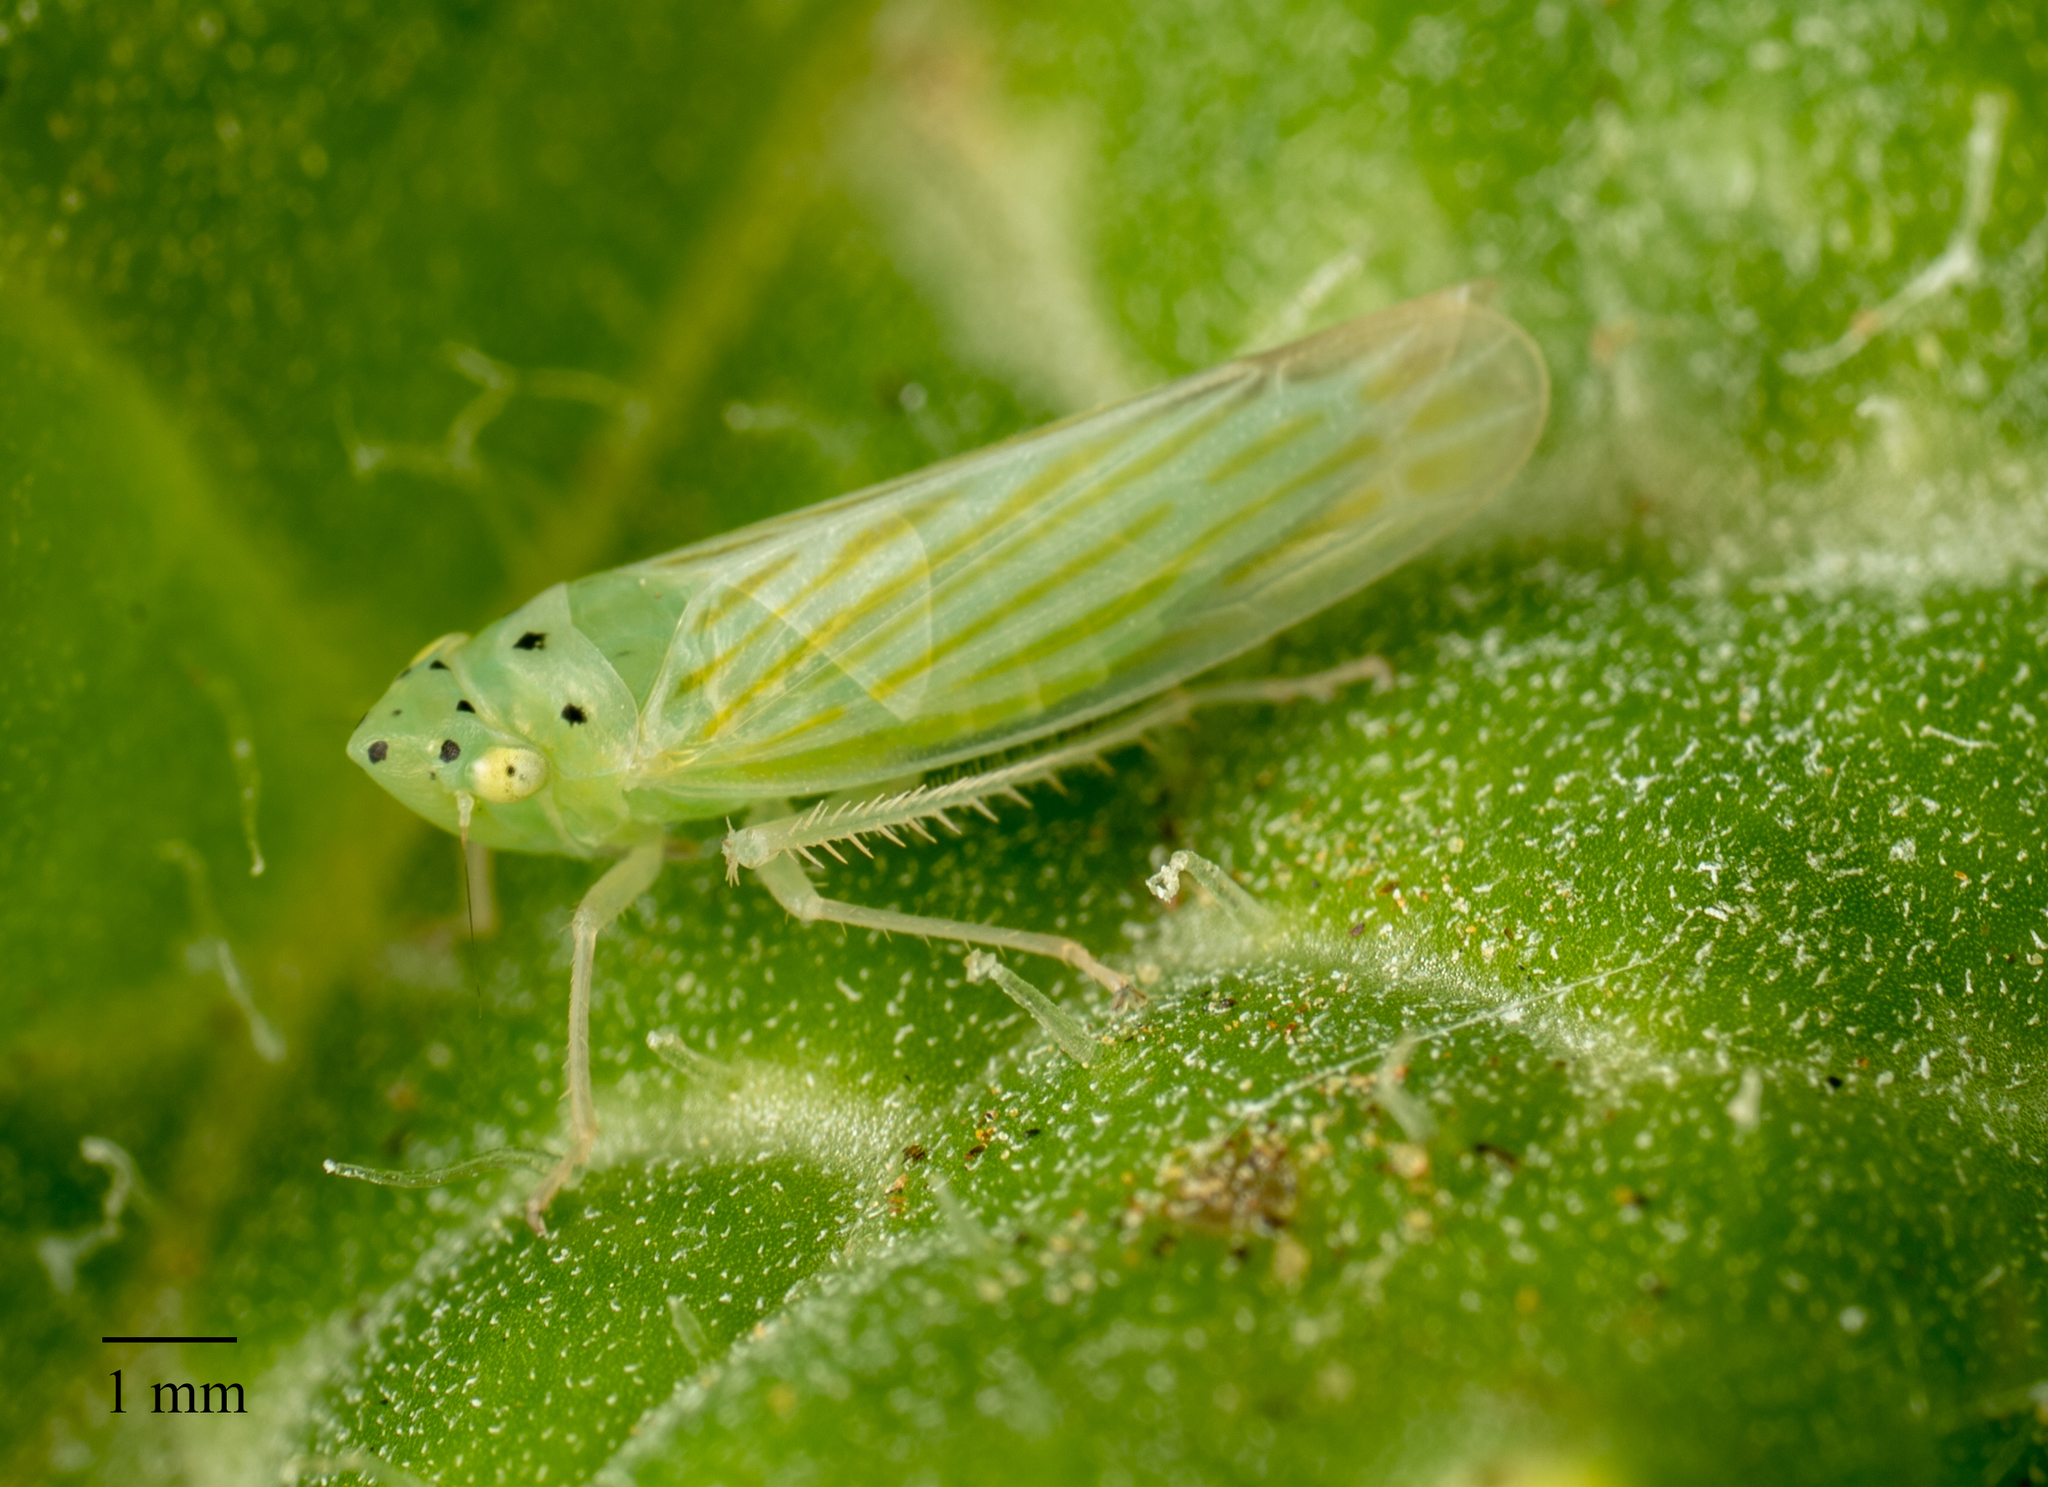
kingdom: Animalia
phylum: Arthropoda
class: Insecta
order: Hemiptera
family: Cicadellidae
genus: Pagaronia
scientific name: Pagaronia tredecimpunctata
